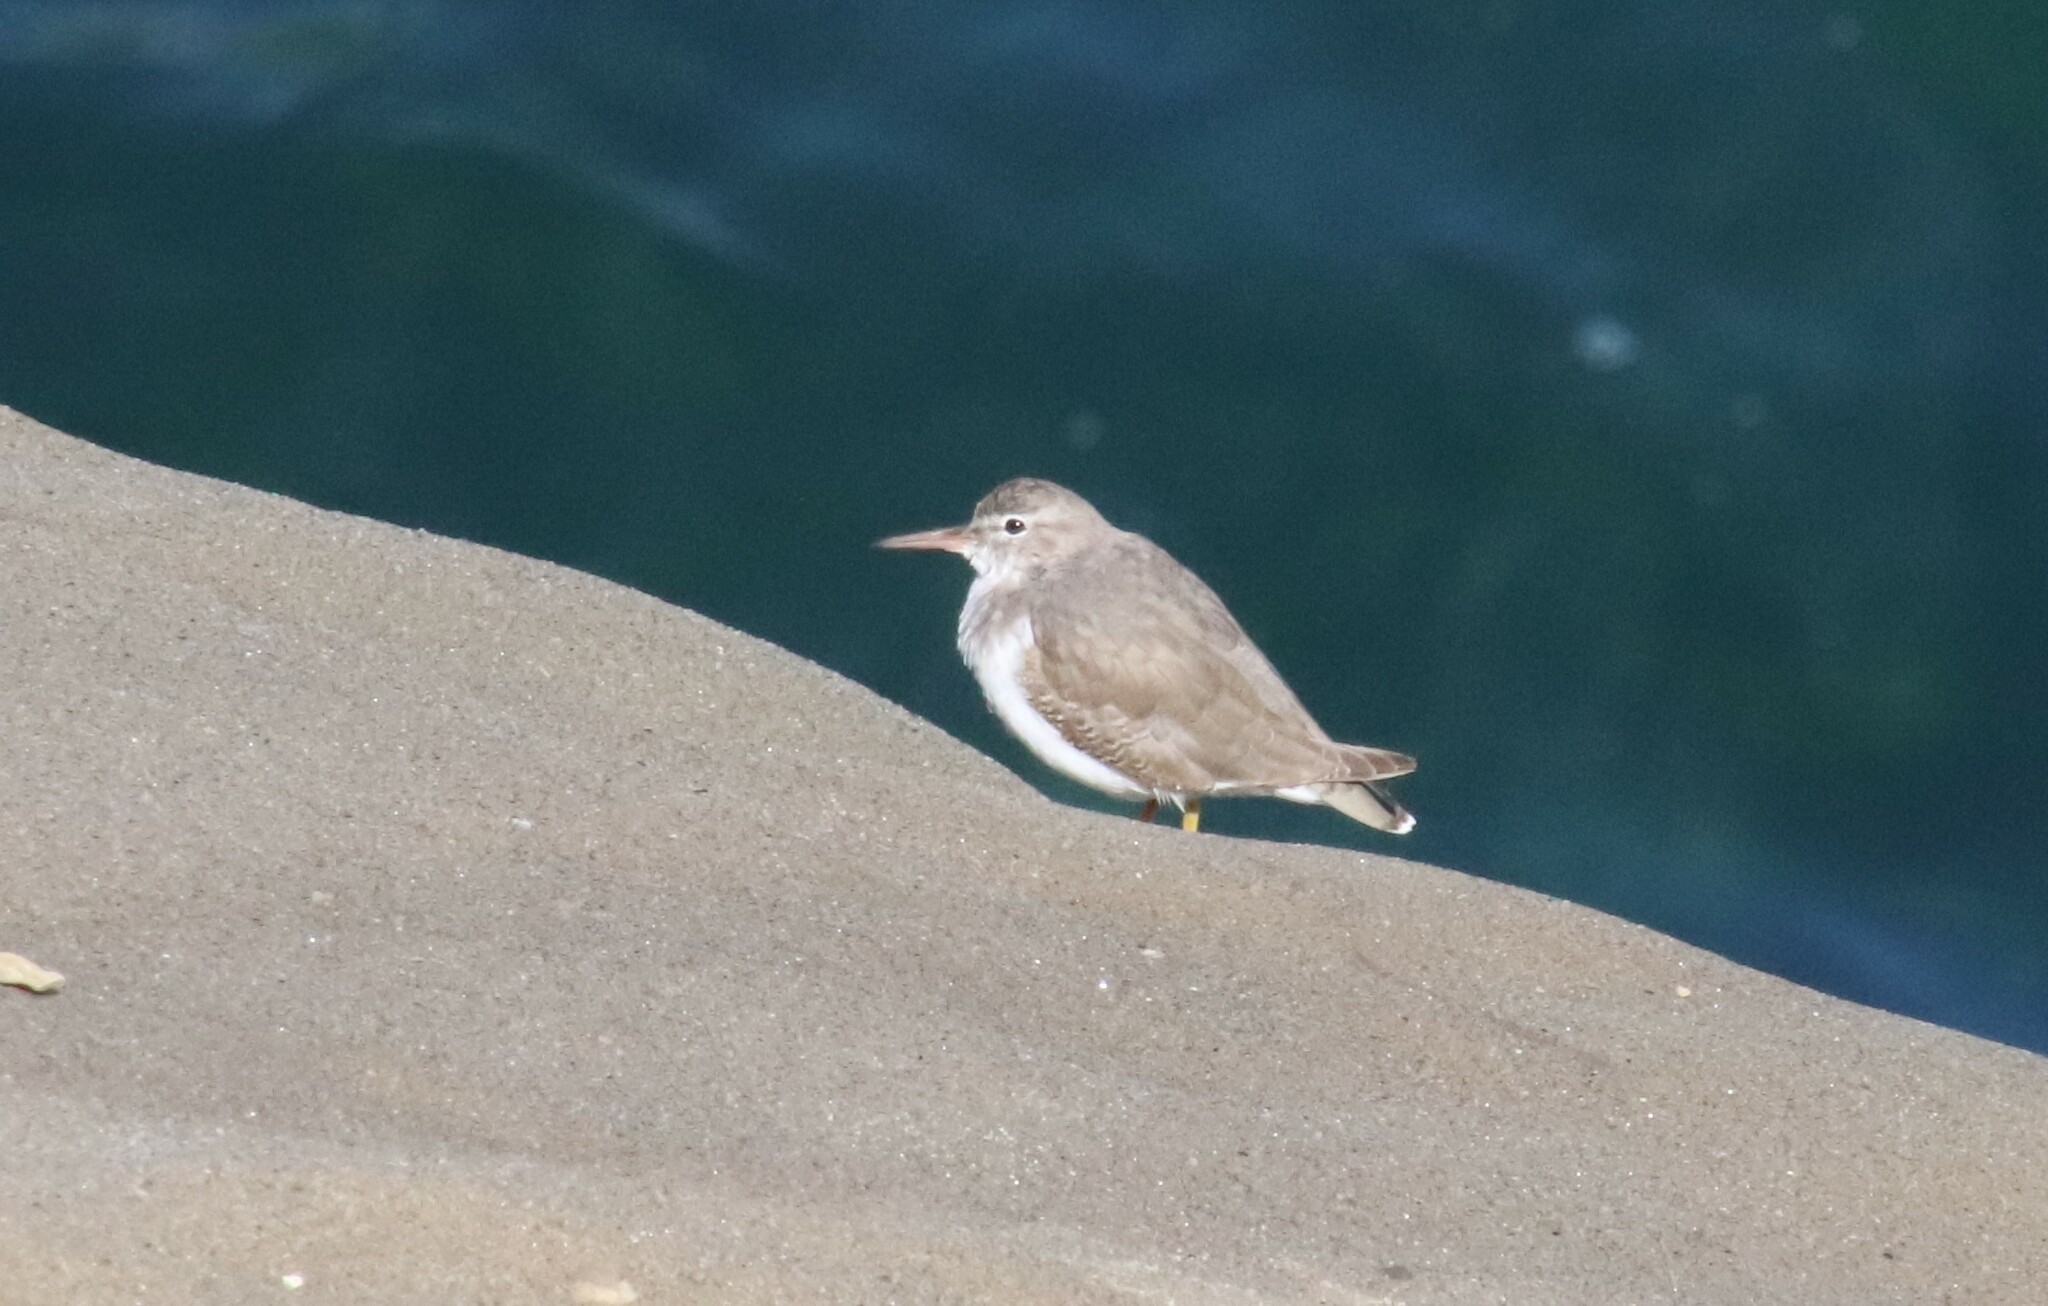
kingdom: Animalia
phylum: Chordata
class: Aves
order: Charadriiformes
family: Scolopacidae
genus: Actitis
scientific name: Actitis macularius
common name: Spotted sandpiper
